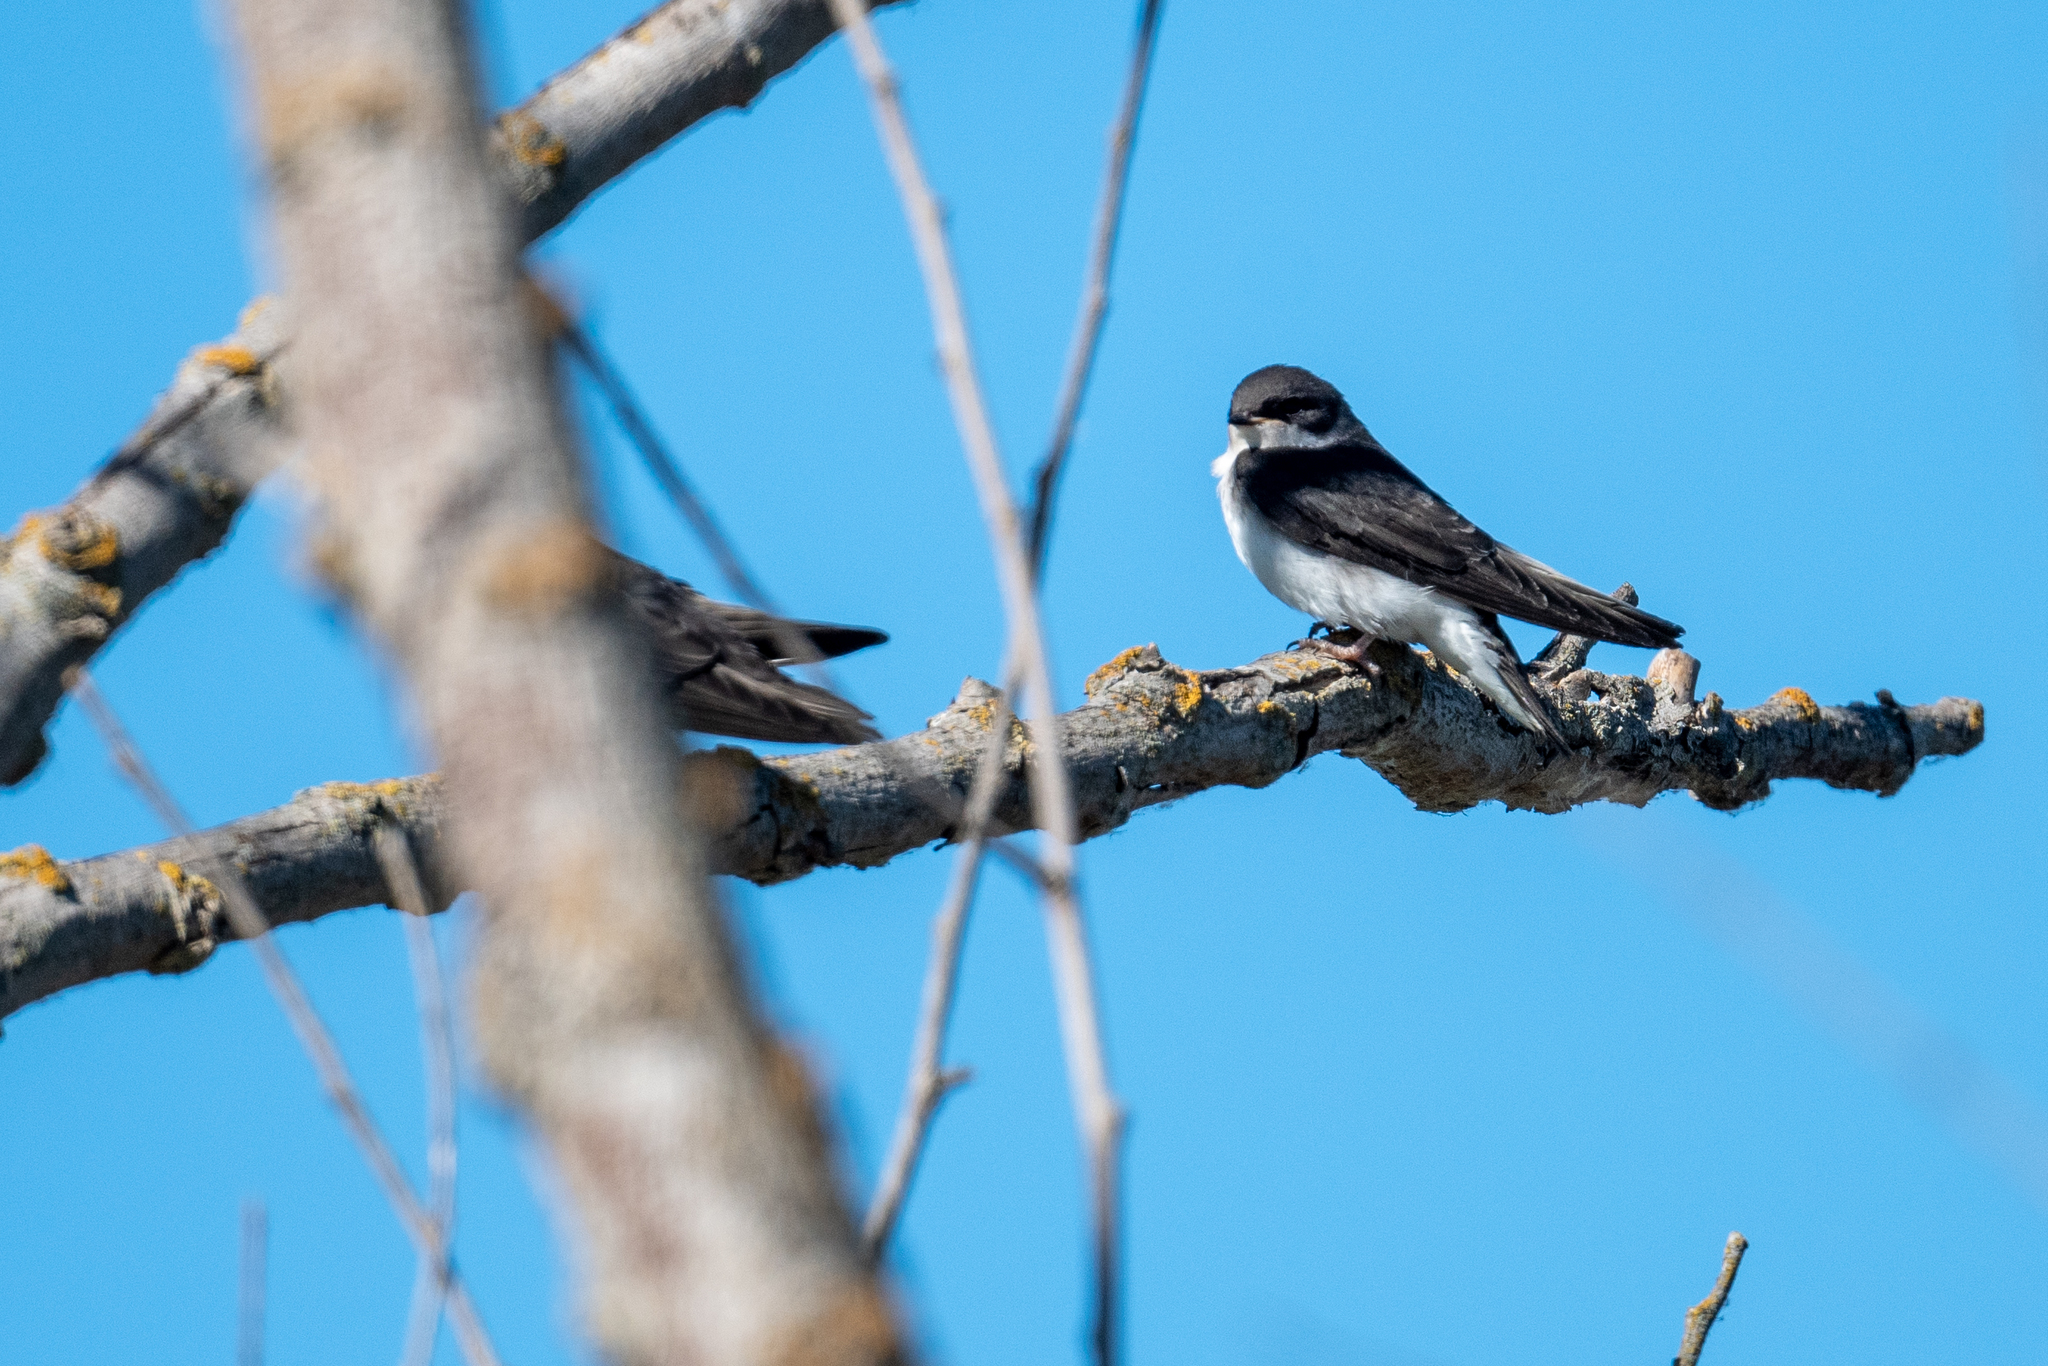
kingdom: Animalia
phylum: Chordata
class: Aves
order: Passeriformes
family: Hirundinidae
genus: Tachycineta
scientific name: Tachycineta bicolor
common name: Tree swallow
